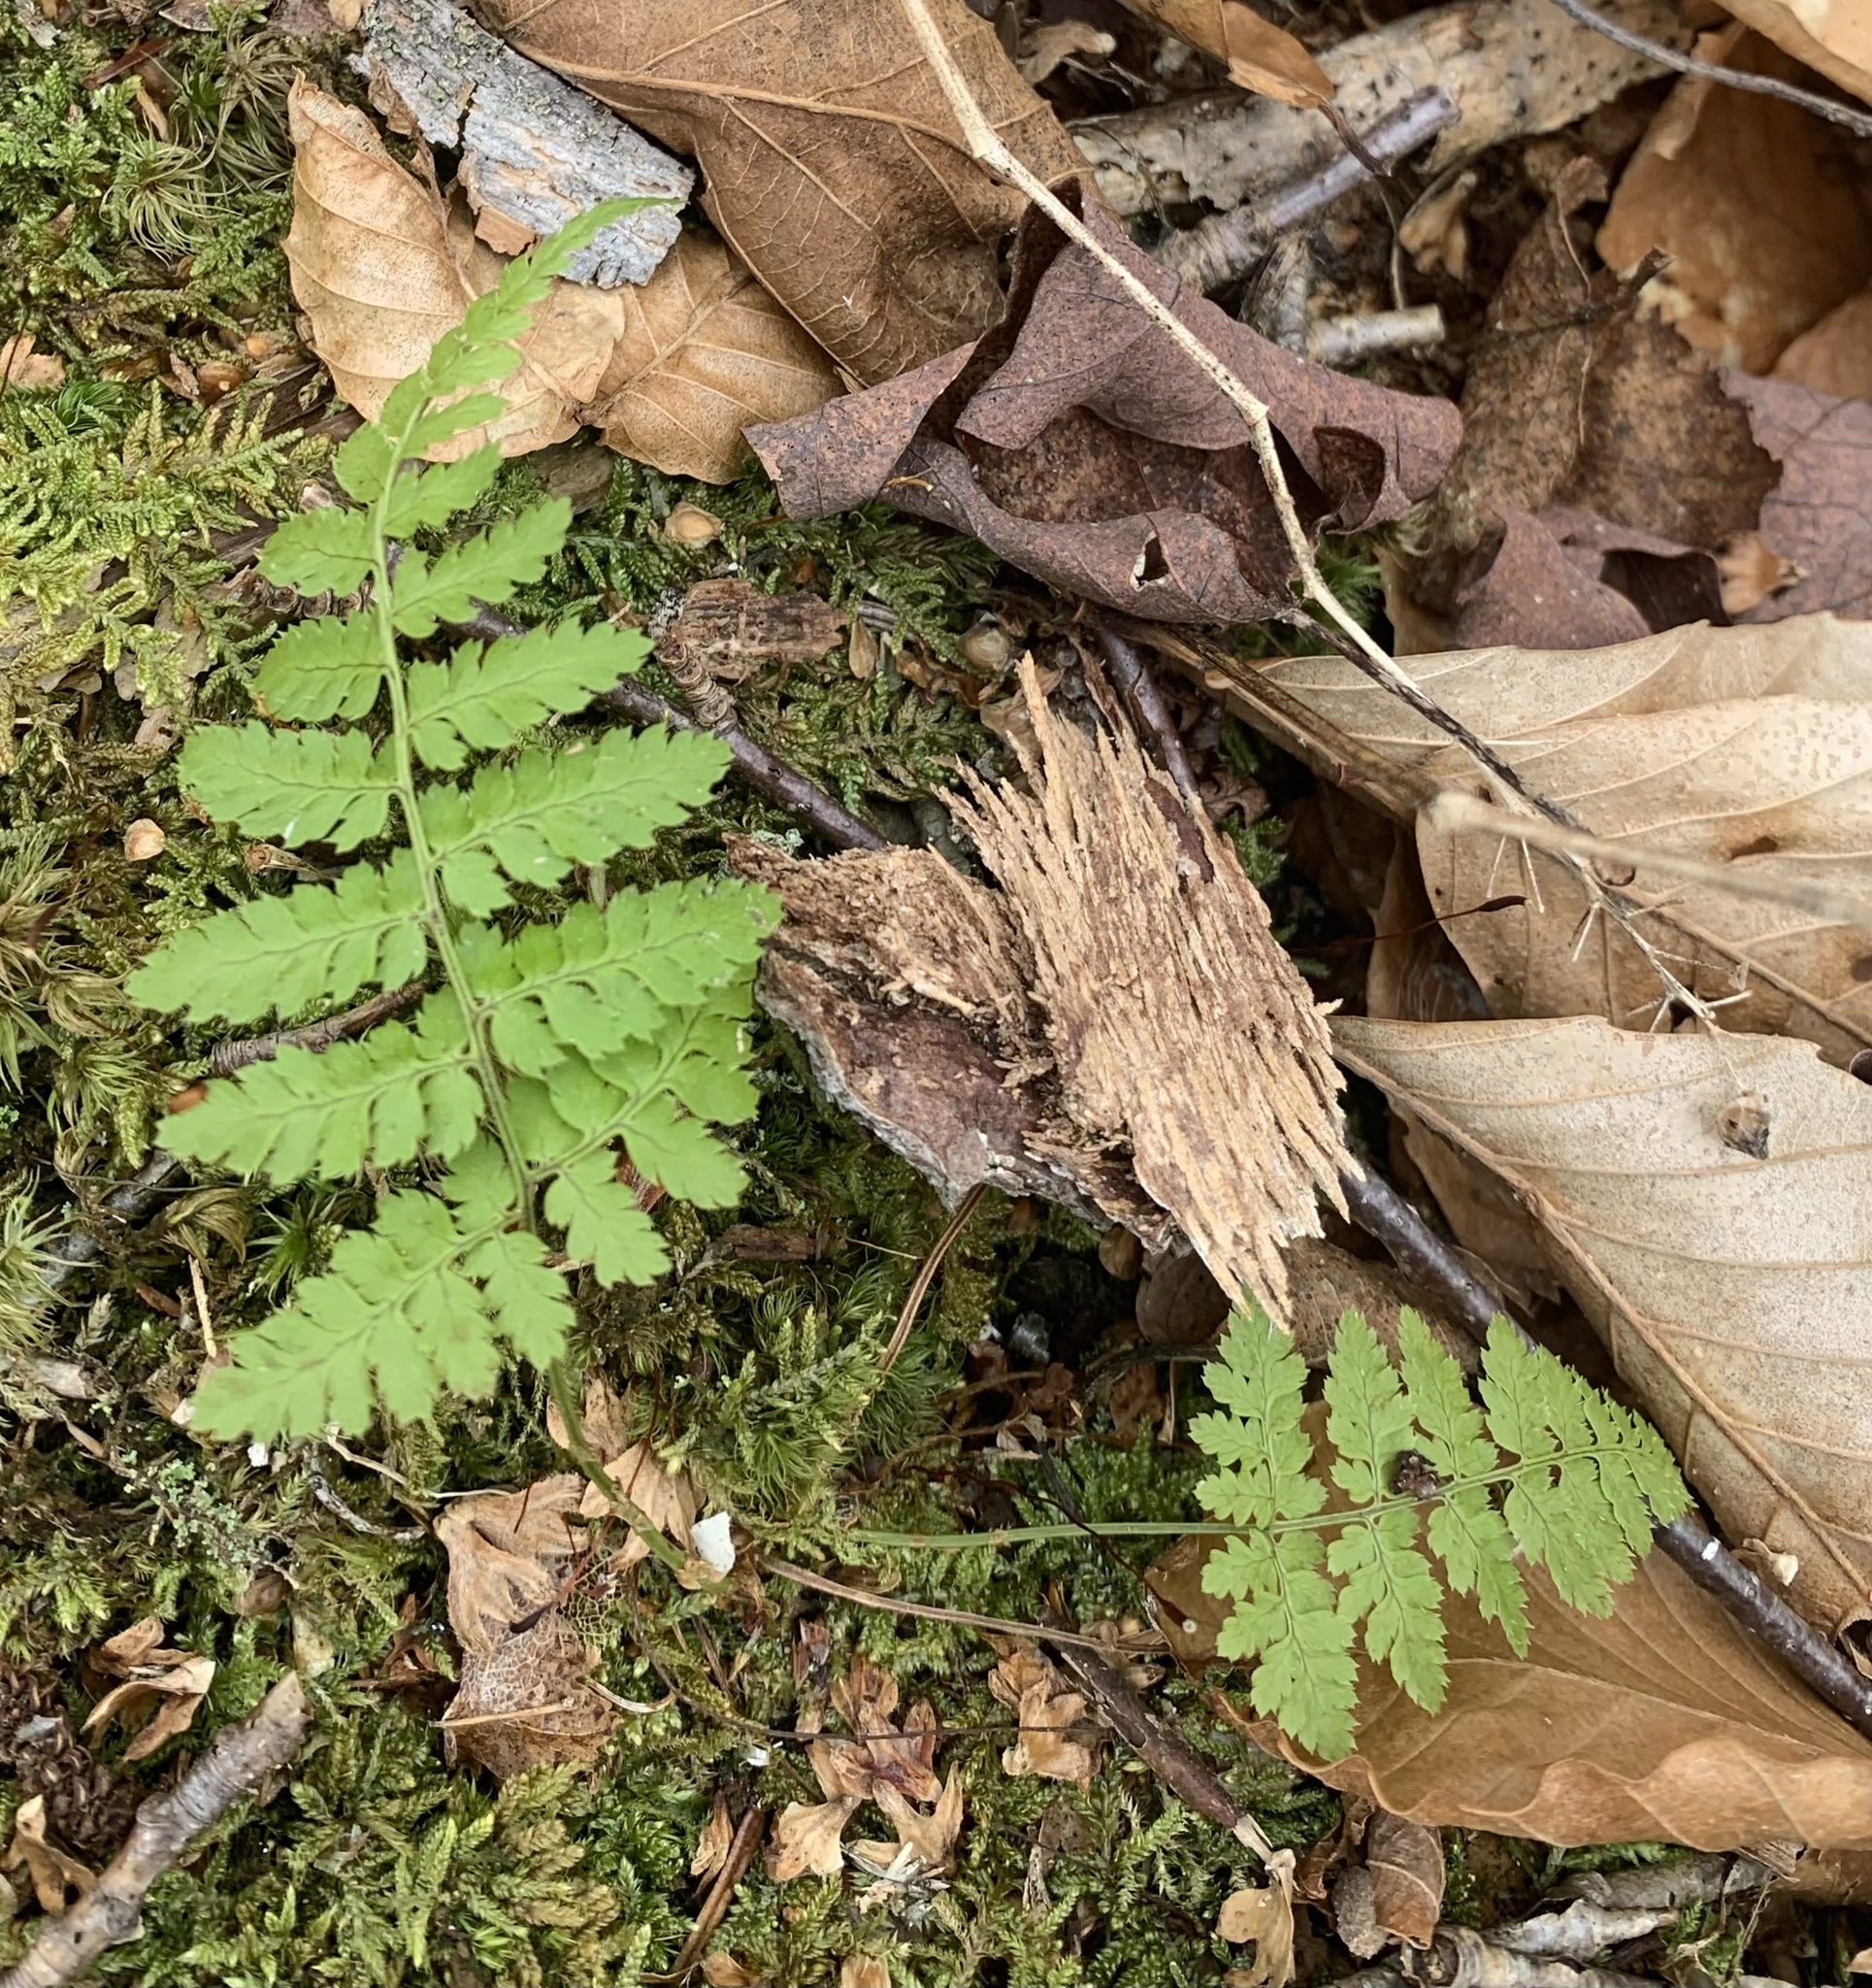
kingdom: Plantae
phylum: Tracheophyta
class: Polypodiopsida
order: Polypodiales
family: Dryopteridaceae
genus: Dryopteris
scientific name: Dryopteris intermedia
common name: Evergreen wood fern
